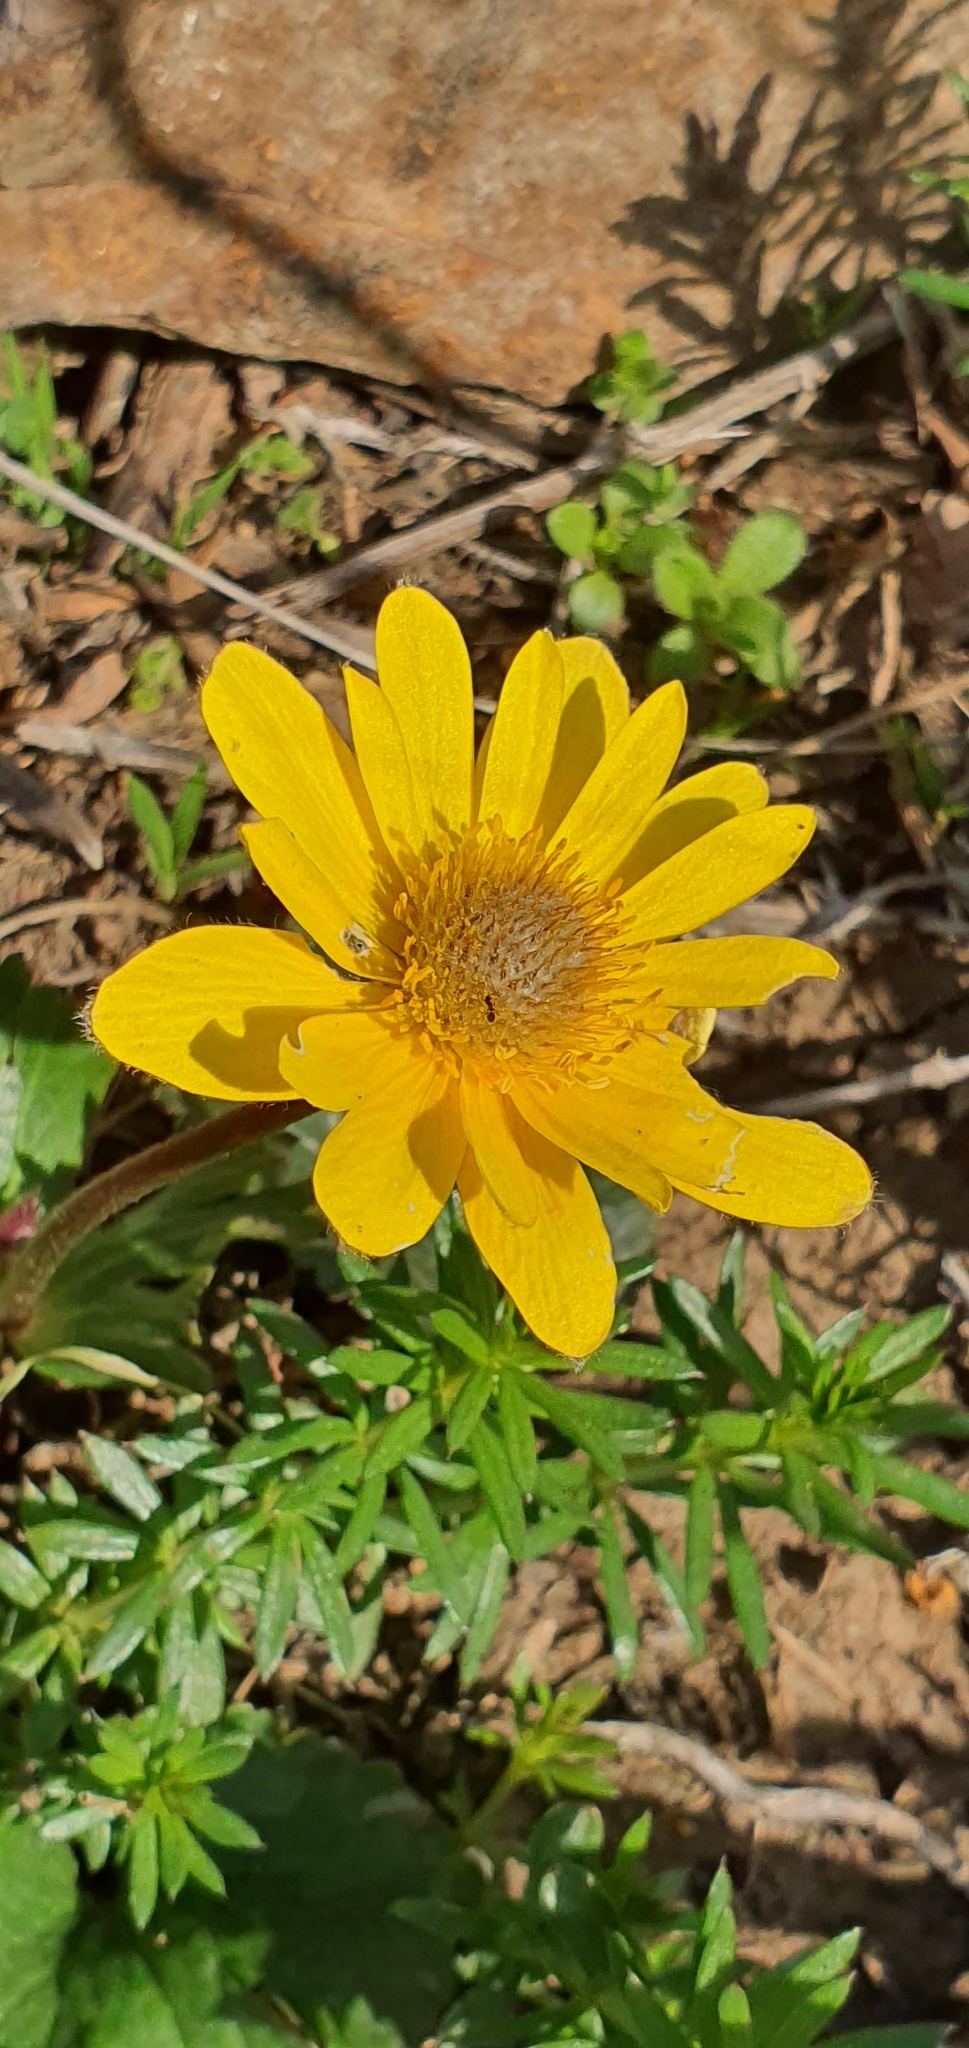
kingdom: Plantae
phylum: Tracheophyta
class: Magnoliopsida
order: Ranunculales
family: Ranunculaceae
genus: Anemone
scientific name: Anemone palmata
